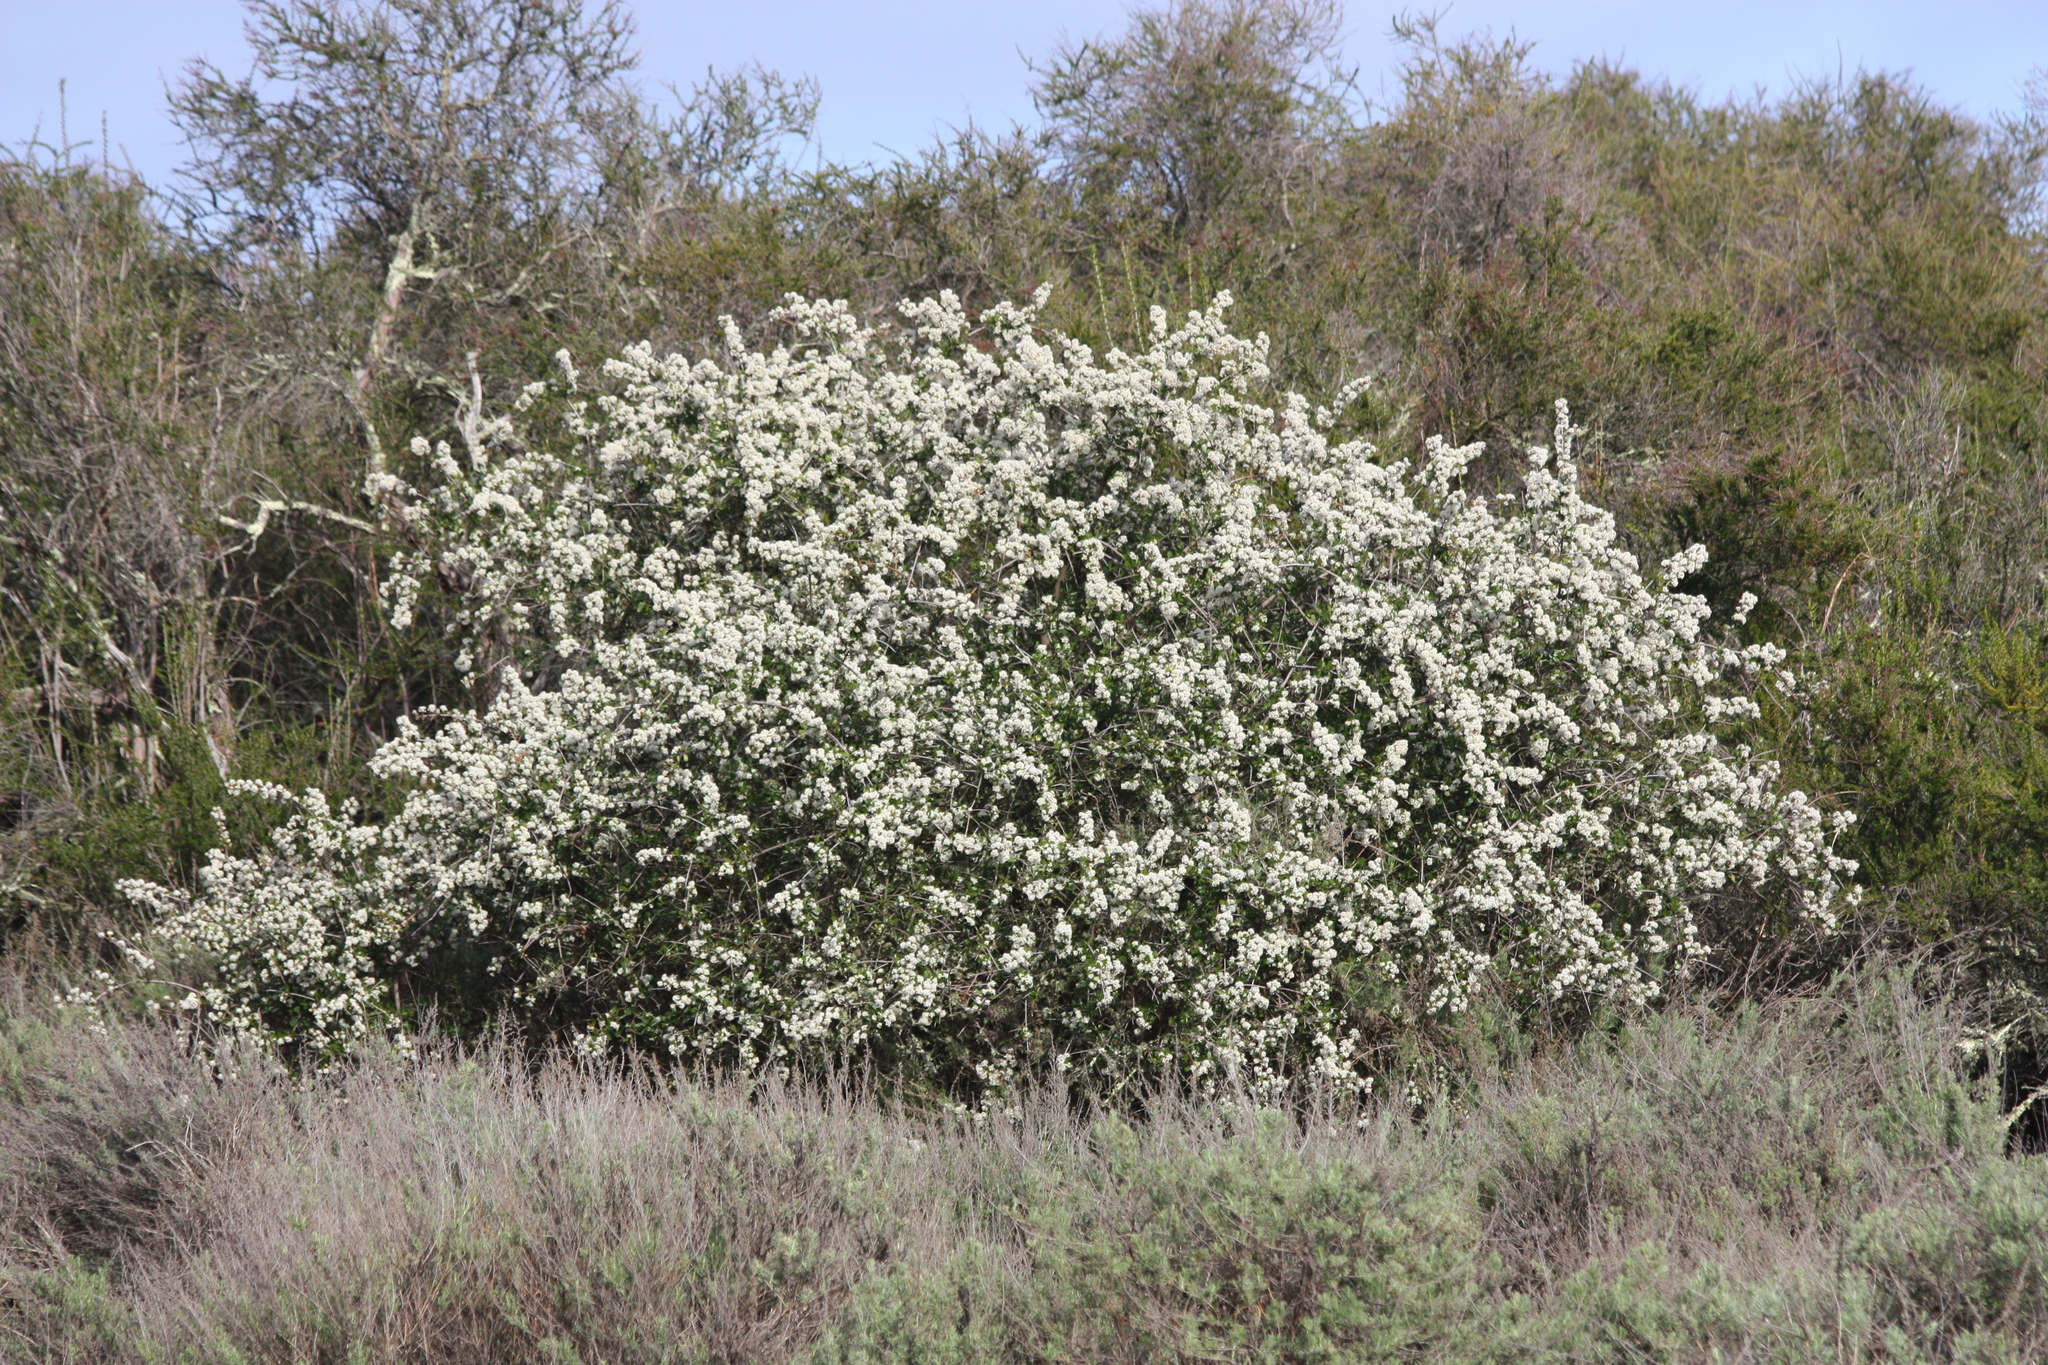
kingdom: Plantae
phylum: Tracheophyta
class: Magnoliopsida
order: Rosales
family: Rhamnaceae
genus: Ceanothus
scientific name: Ceanothus cuneatus
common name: Cuneate ceanothus
